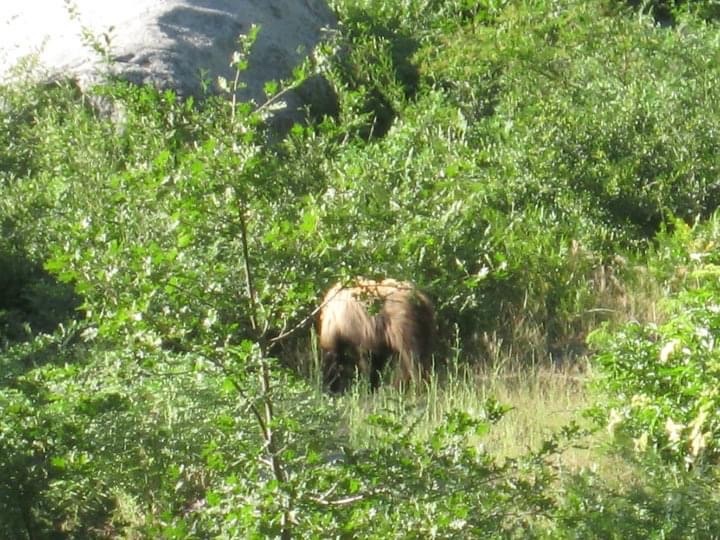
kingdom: Animalia
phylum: Chordata
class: Mammalia
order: Carnivora
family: Ursidae
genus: Ursus
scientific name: Ursus americanus
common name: American black bear
